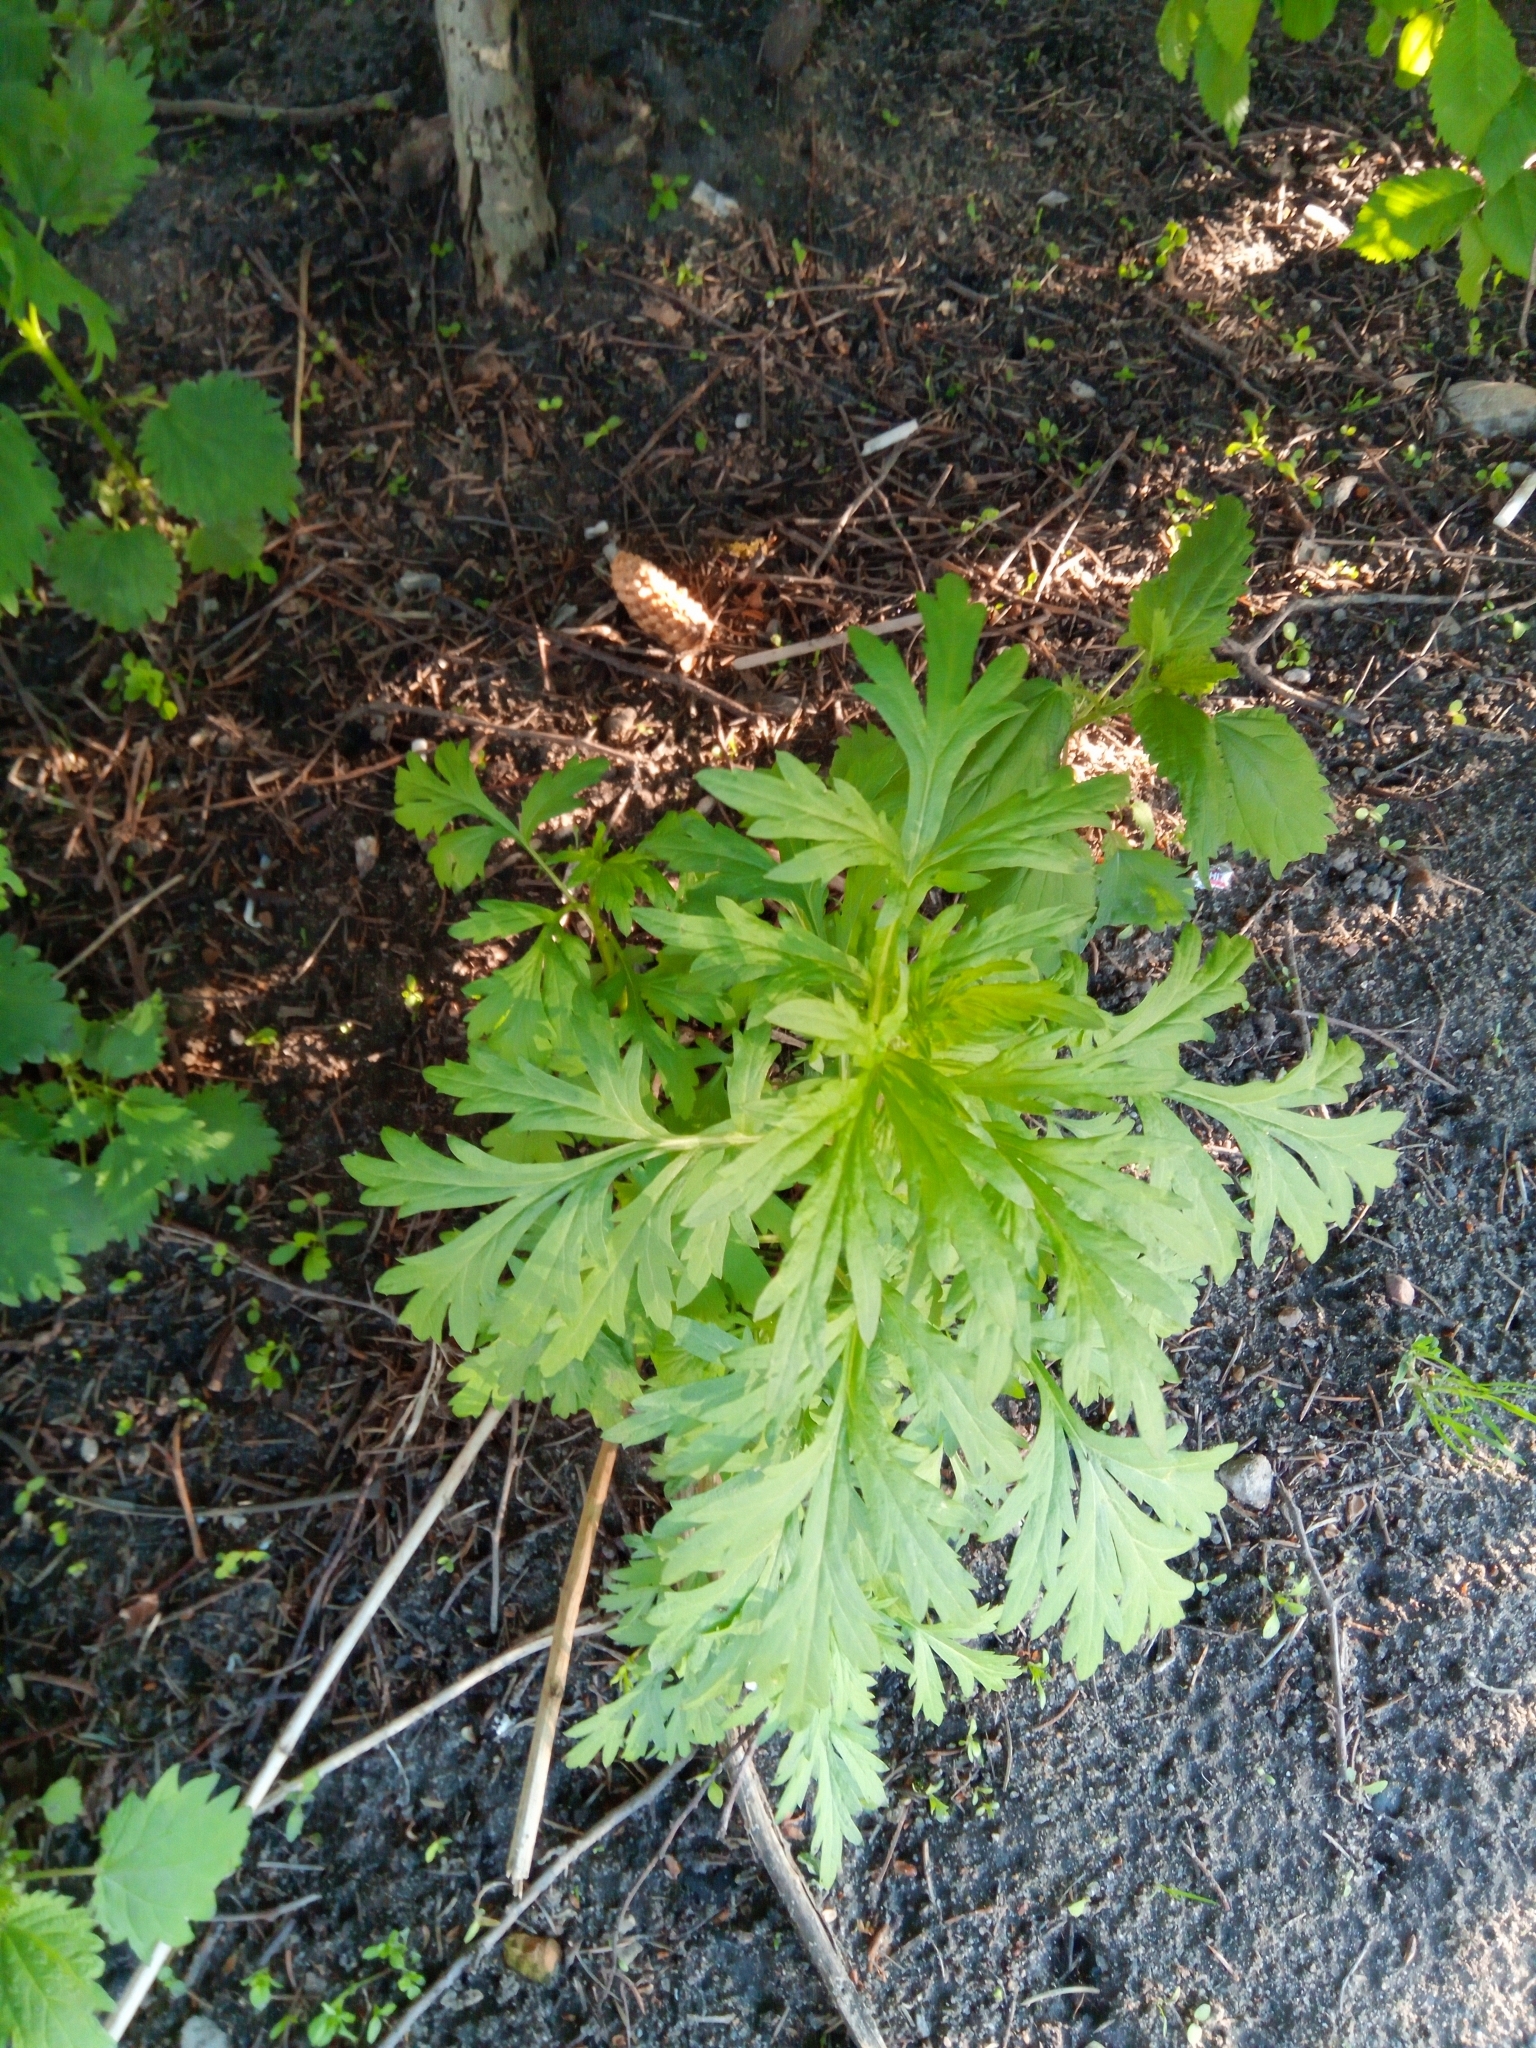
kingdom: Plantae
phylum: Tracheophyta
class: Magnoliopsida
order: Asterales
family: Asteraceae
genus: Artemisia
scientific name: Artemisia vulgaris
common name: Mugwort
